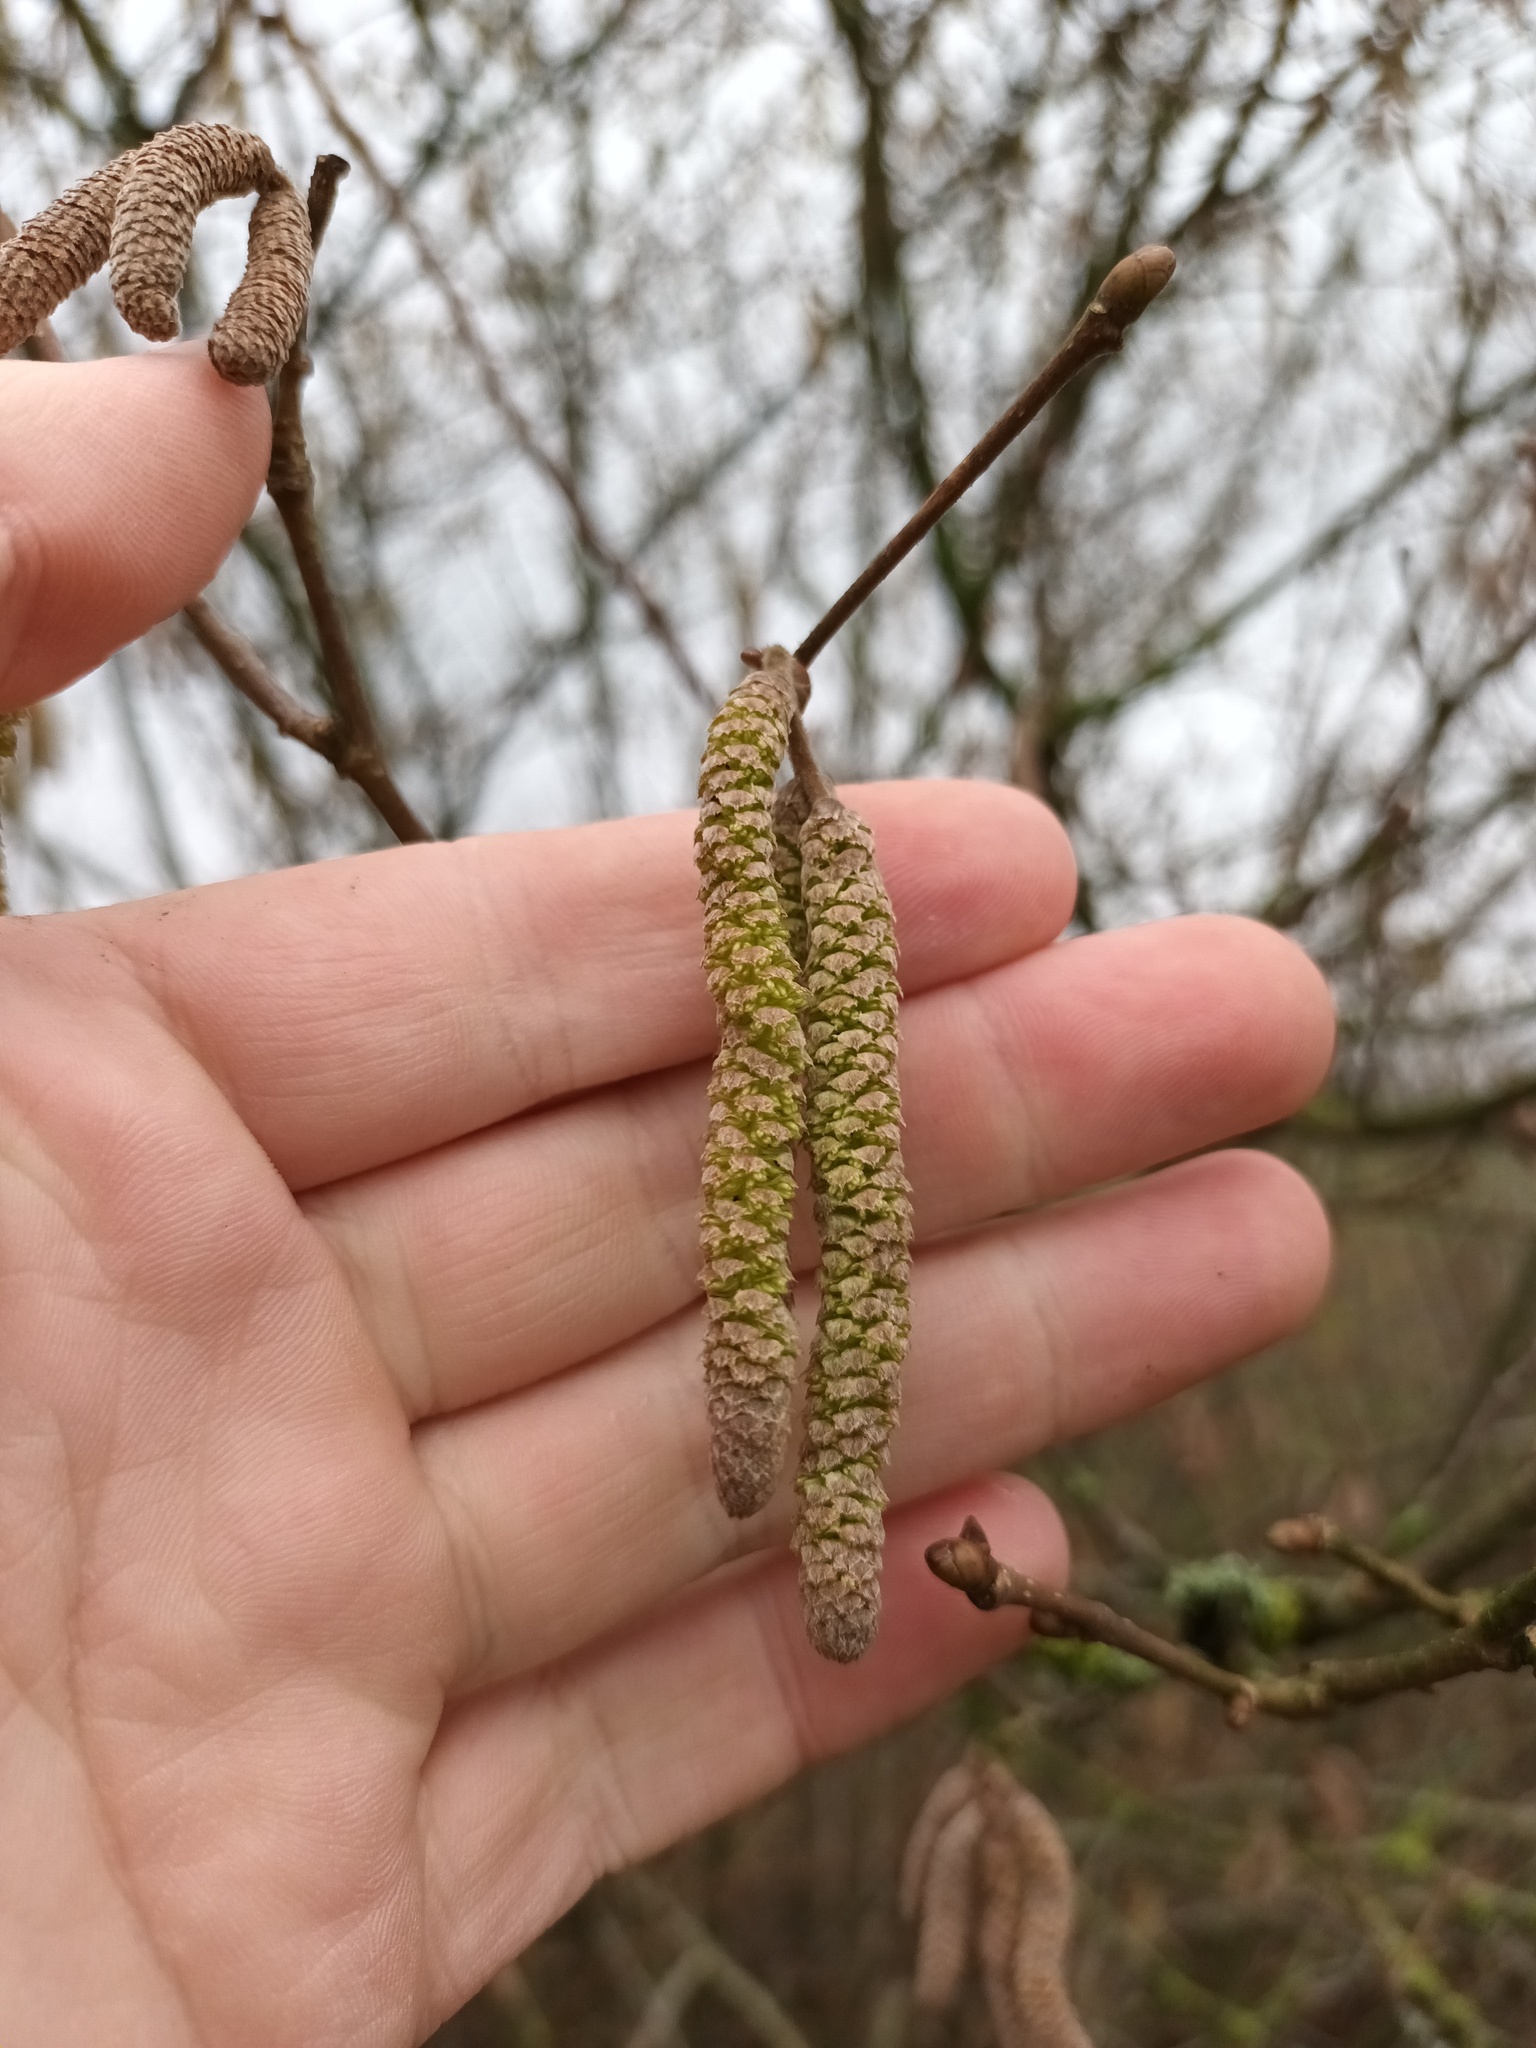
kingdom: Plantae
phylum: Tracheophyta
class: Magnoliopsida
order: Fagales
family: Betulaceae
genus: Corylus
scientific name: Corylus avellana
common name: European hazel
